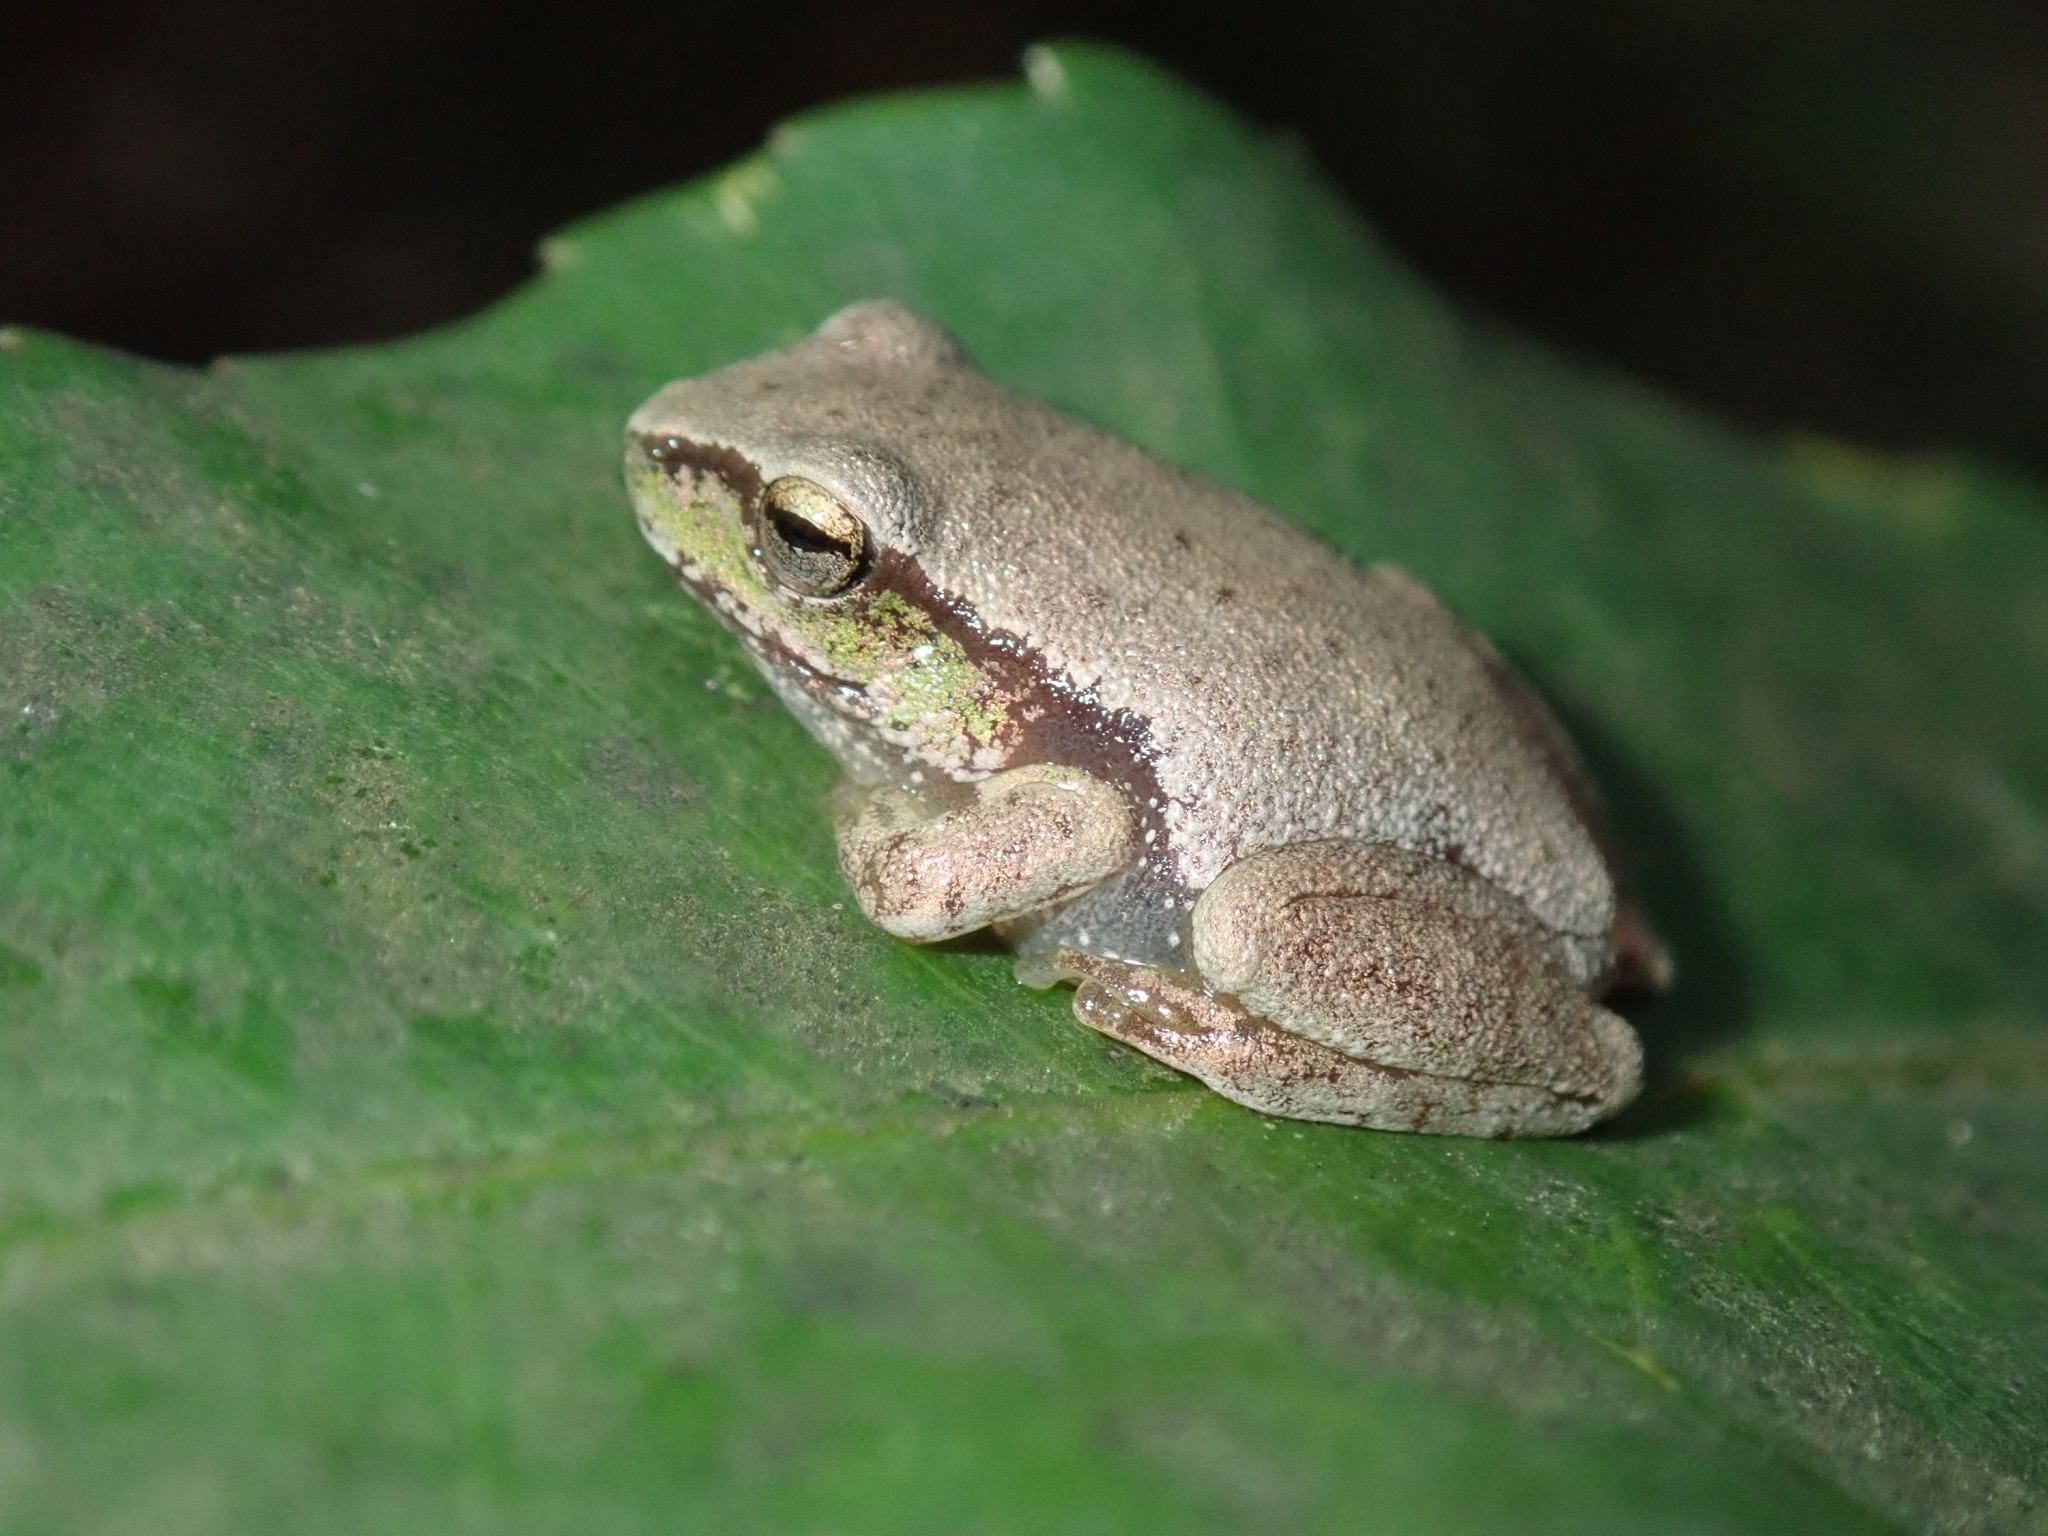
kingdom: Animalia
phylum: Chordata
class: Amphibia
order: Anura
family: Pelodryadidae
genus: Ranoidea
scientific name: Ranoidea phyllochroa
